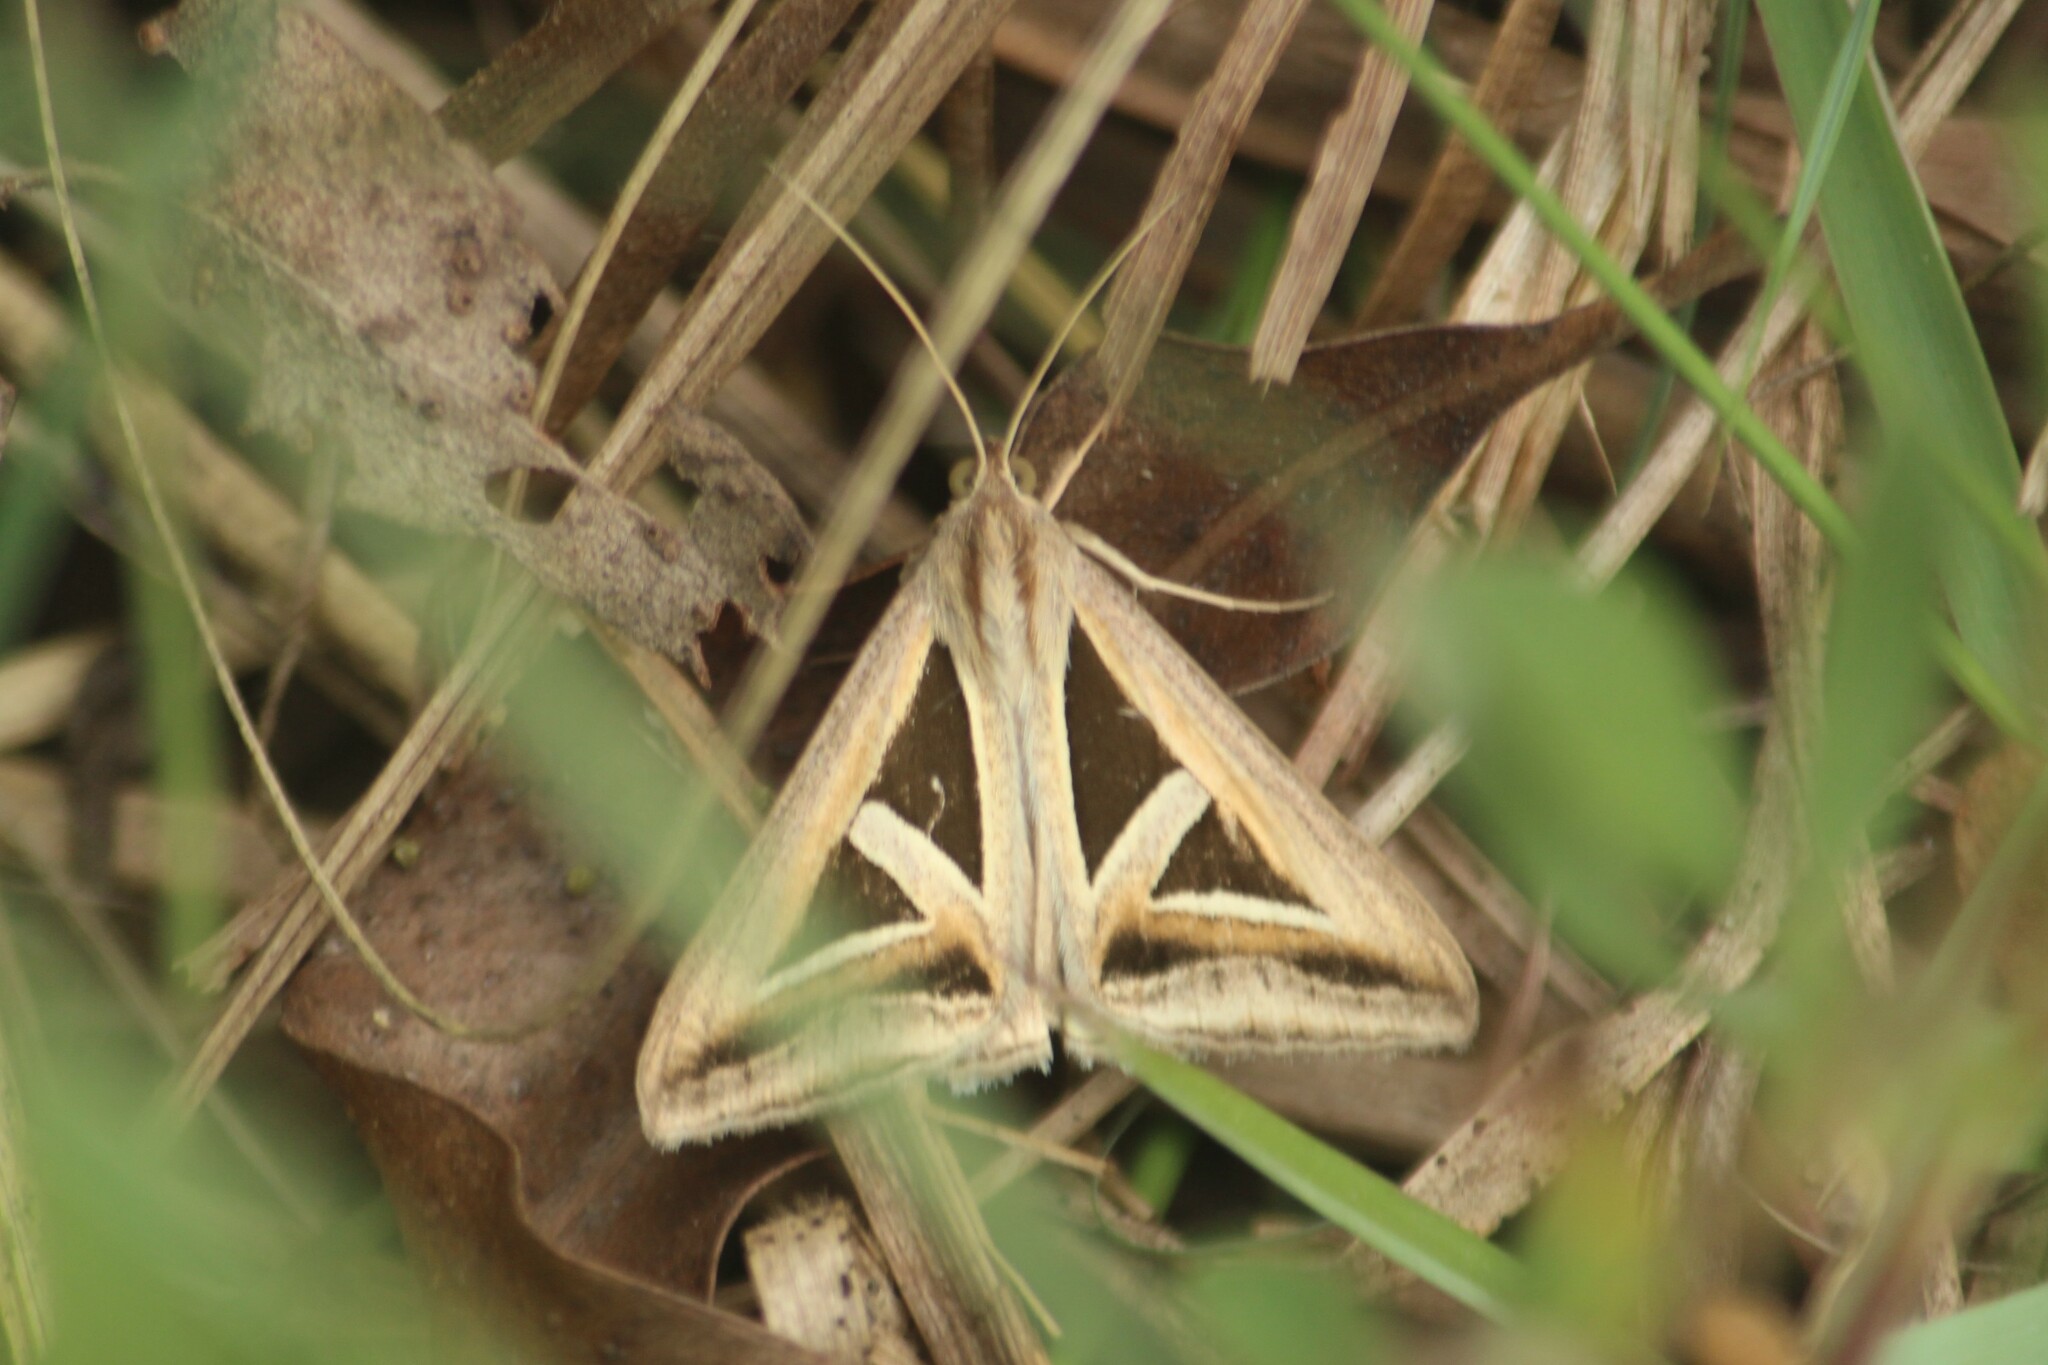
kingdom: Animalia
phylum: Arthropoda
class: Insecta
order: Lepidoptera
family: Erebidae
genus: Trigonodes
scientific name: Trigonodes hyppasia
